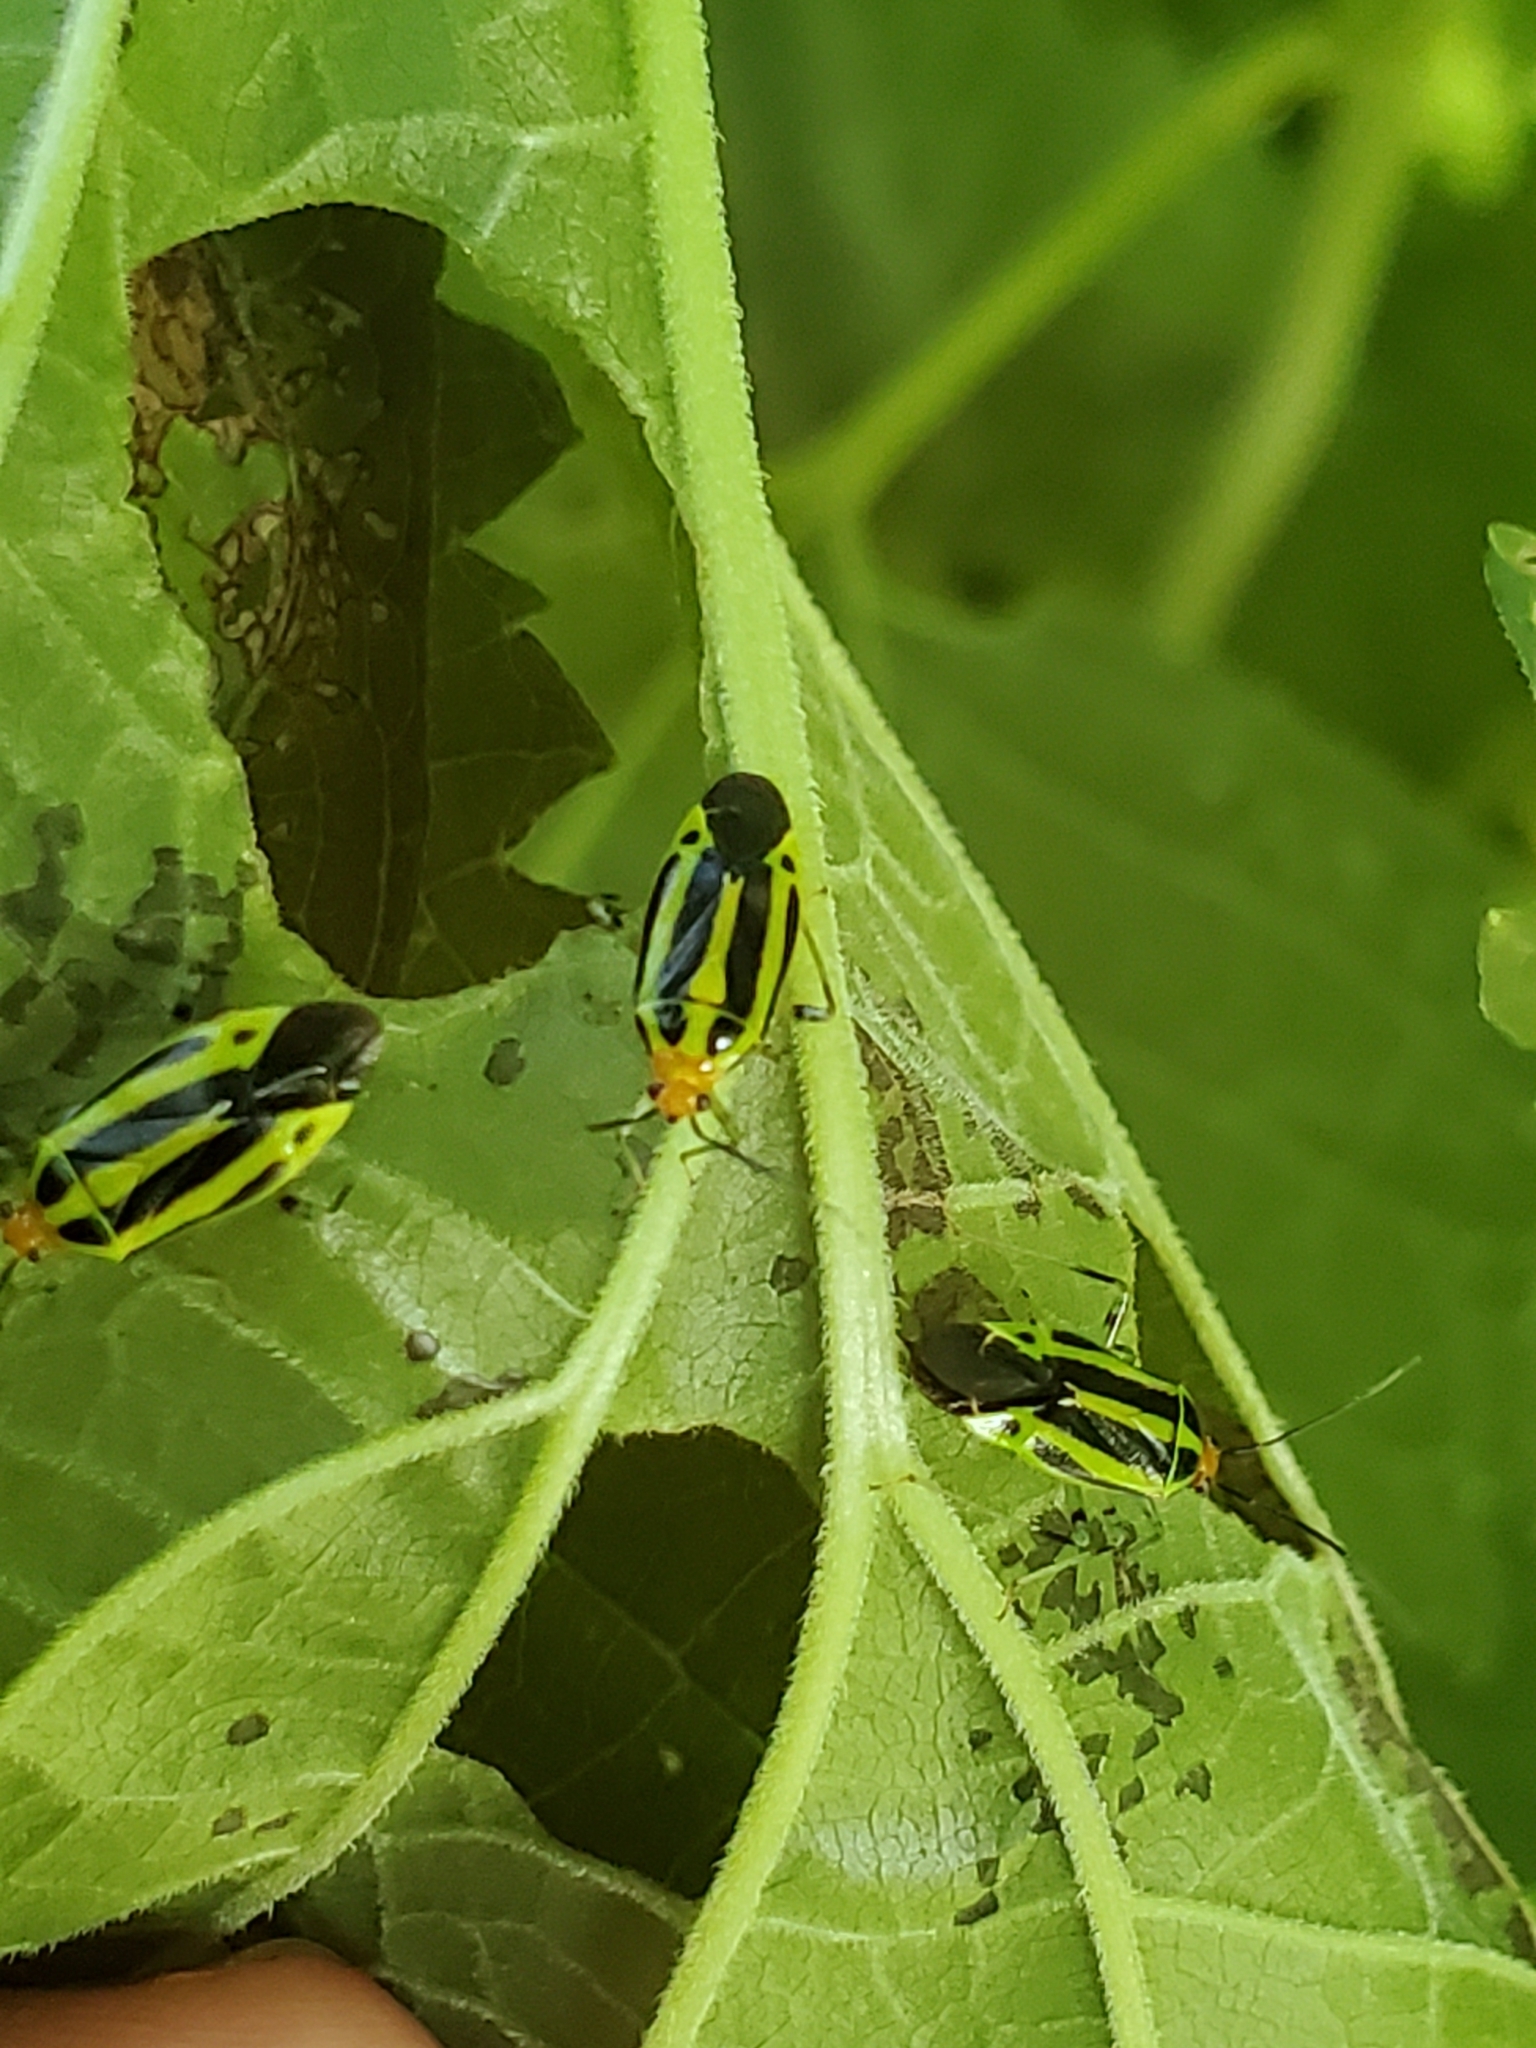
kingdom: Animalia
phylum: Arthropoda
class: Insecta
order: Hemiptera
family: Miridae
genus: Poecilocapsus
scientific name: Poecilocapsus lineatus
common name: Four-lined plant bug
